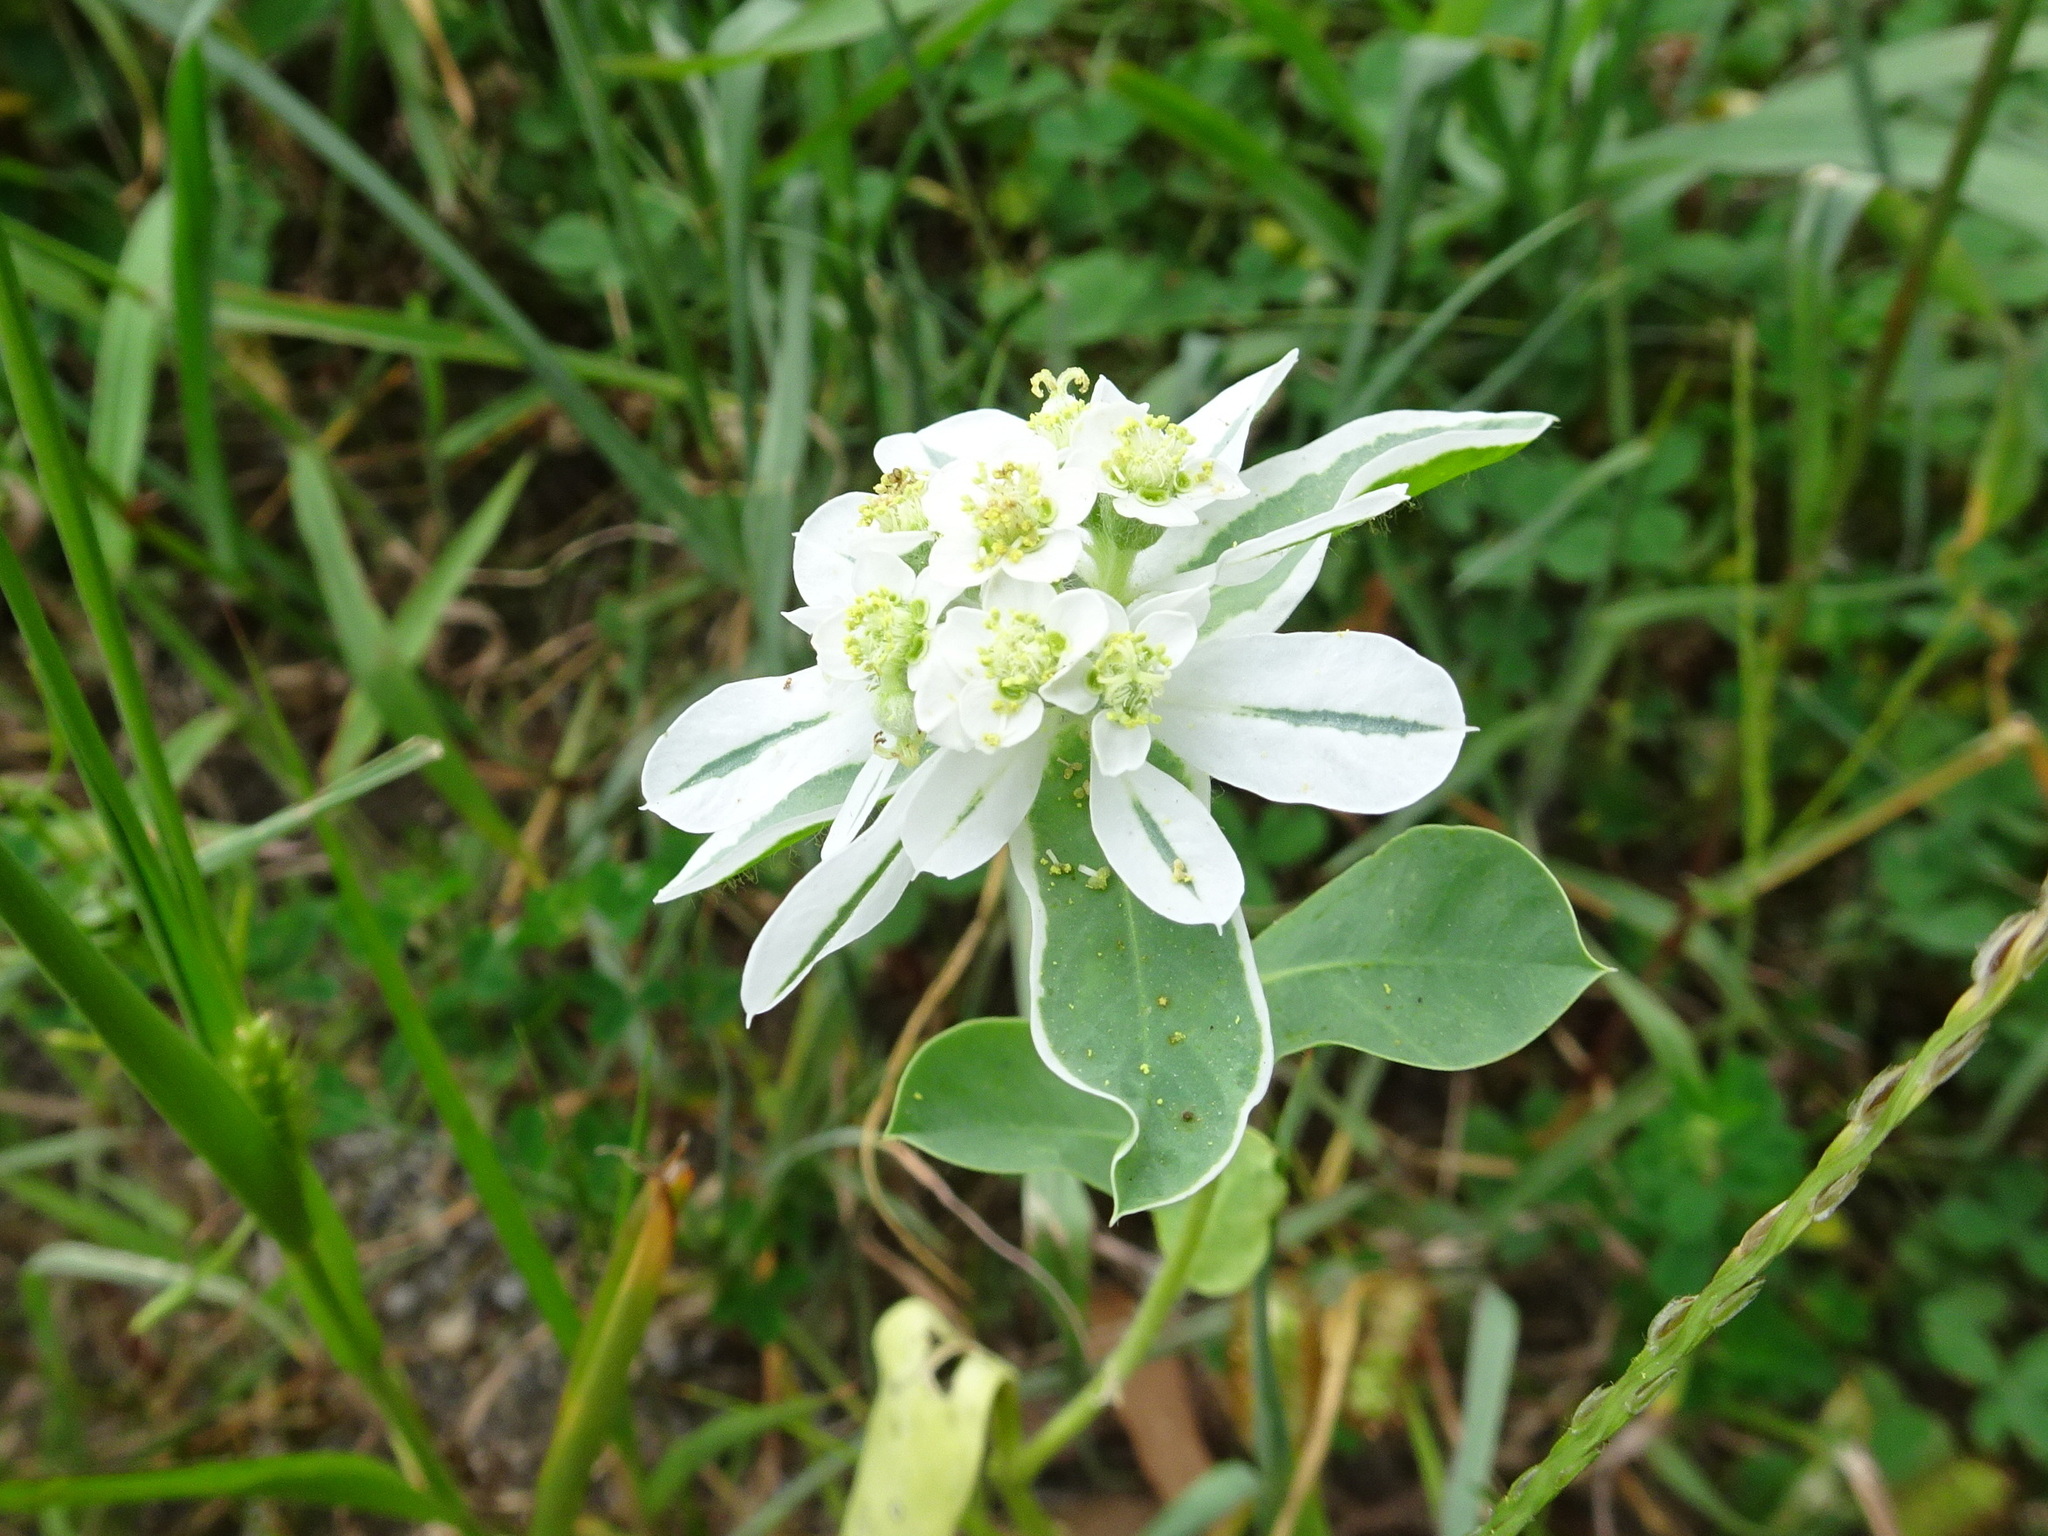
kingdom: Plantae
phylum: Tracheophyta
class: Magnoliopsida
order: Malpighiales
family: Euphorbiaceae
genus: Euphorbia
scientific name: Euphorbia marginata
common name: Ghostweed
